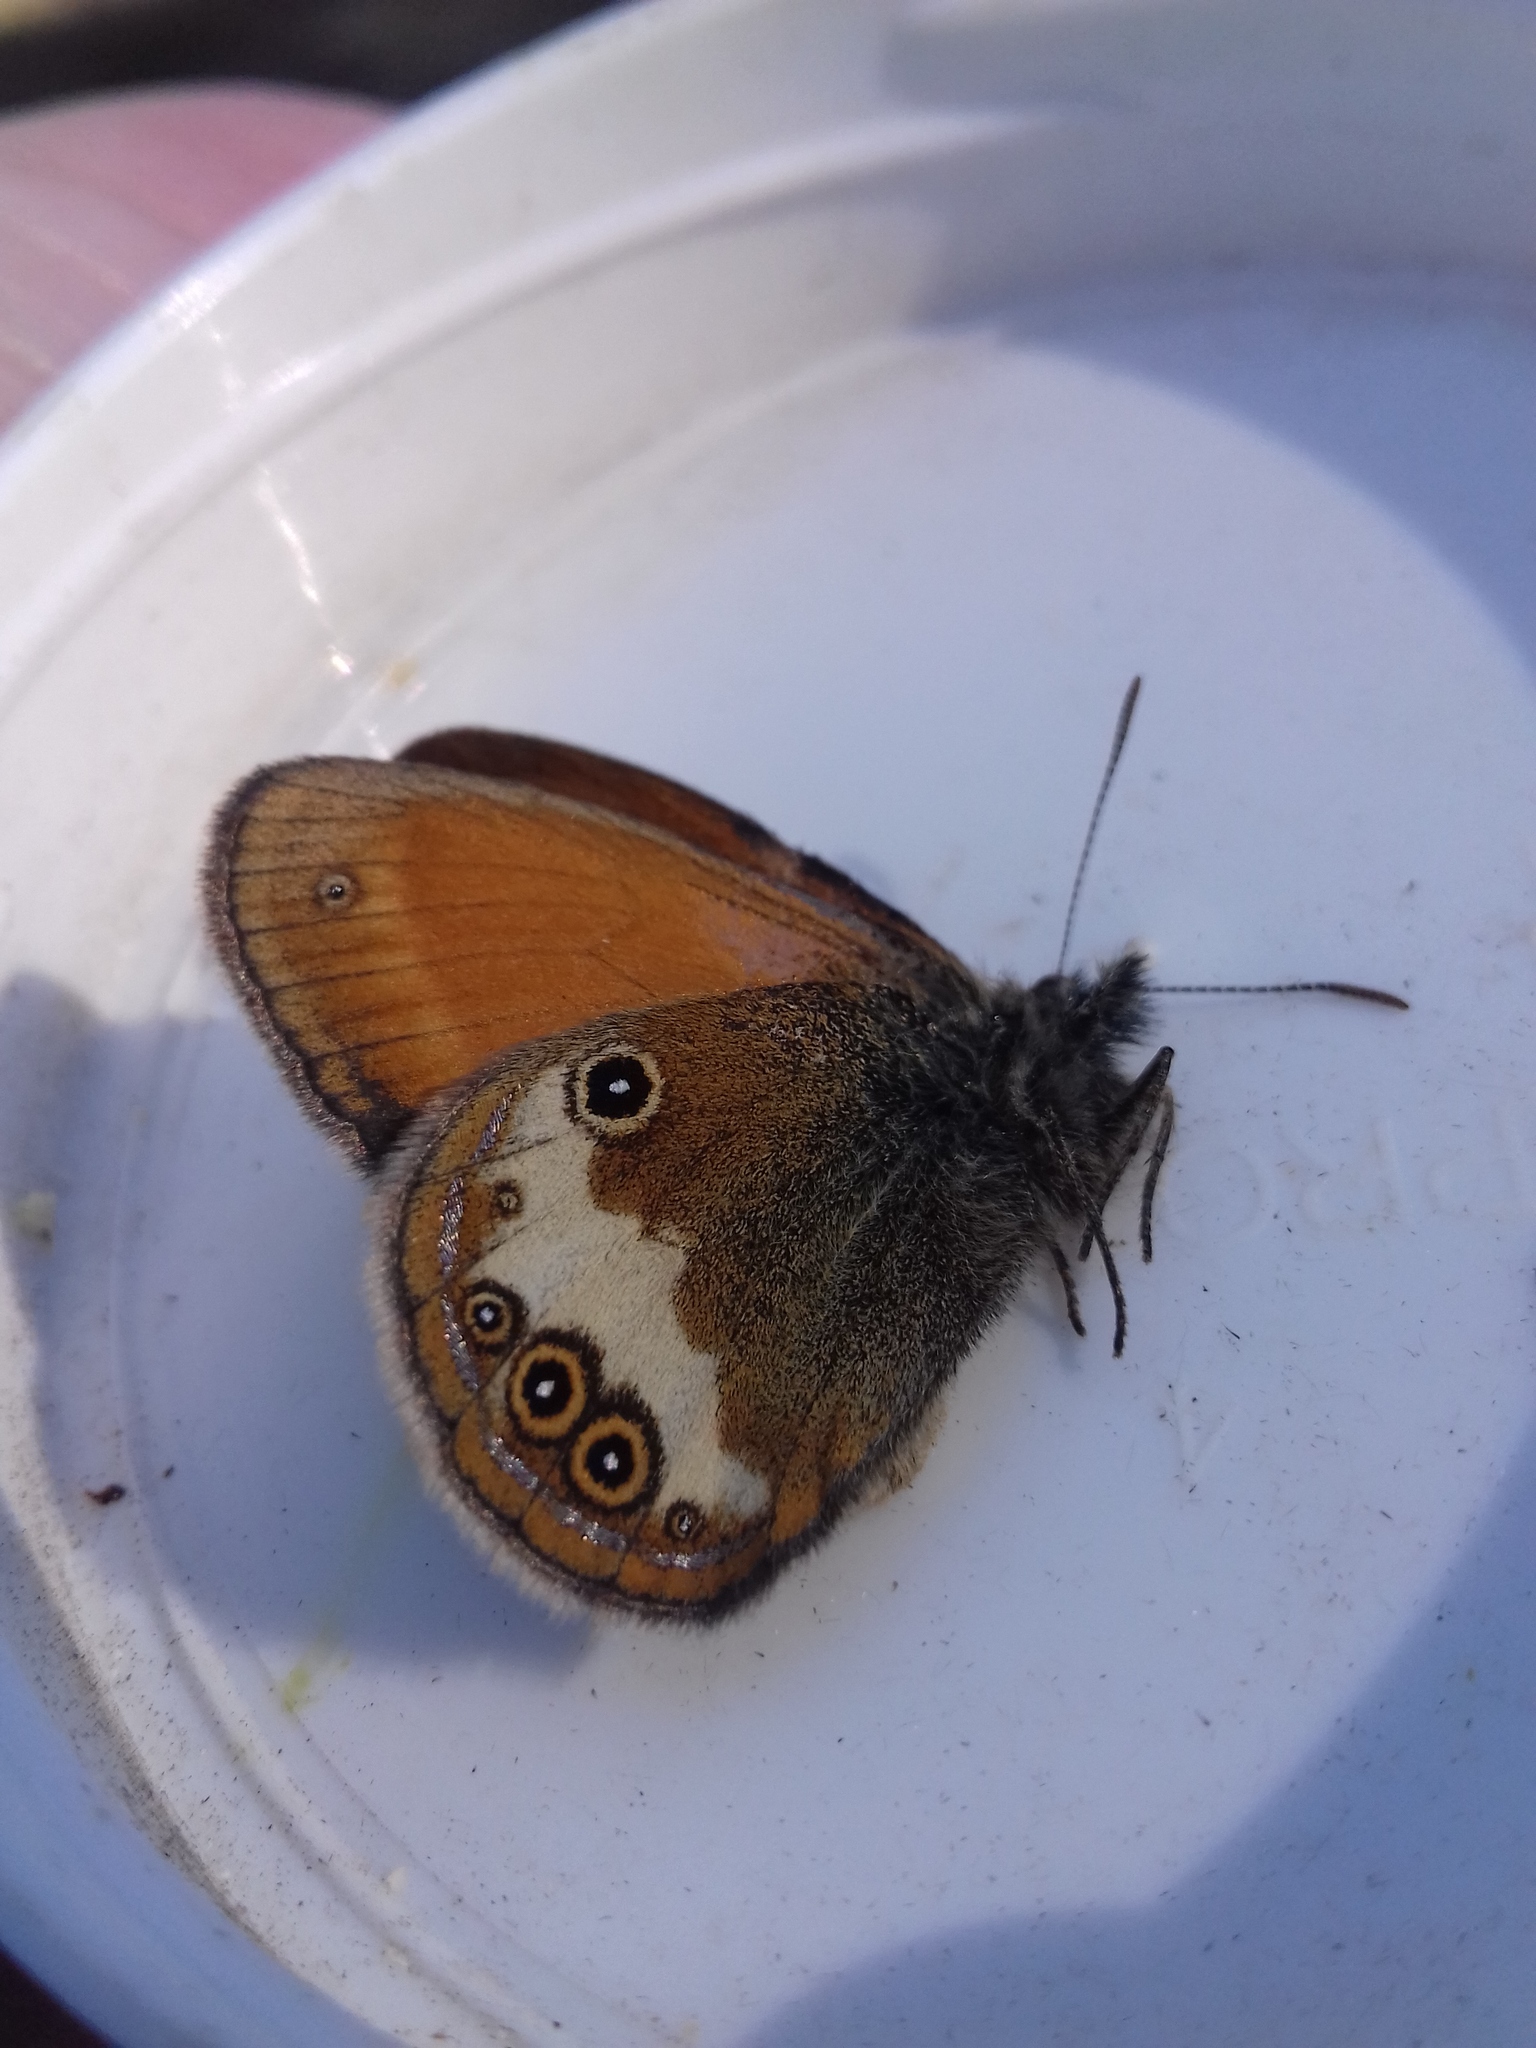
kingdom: Animalia
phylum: Arthropoda
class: Insecta
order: Lepidoptera
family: Nymphalidae
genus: Coenonympha
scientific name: Coenonympha arcania
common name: Pearly heath
